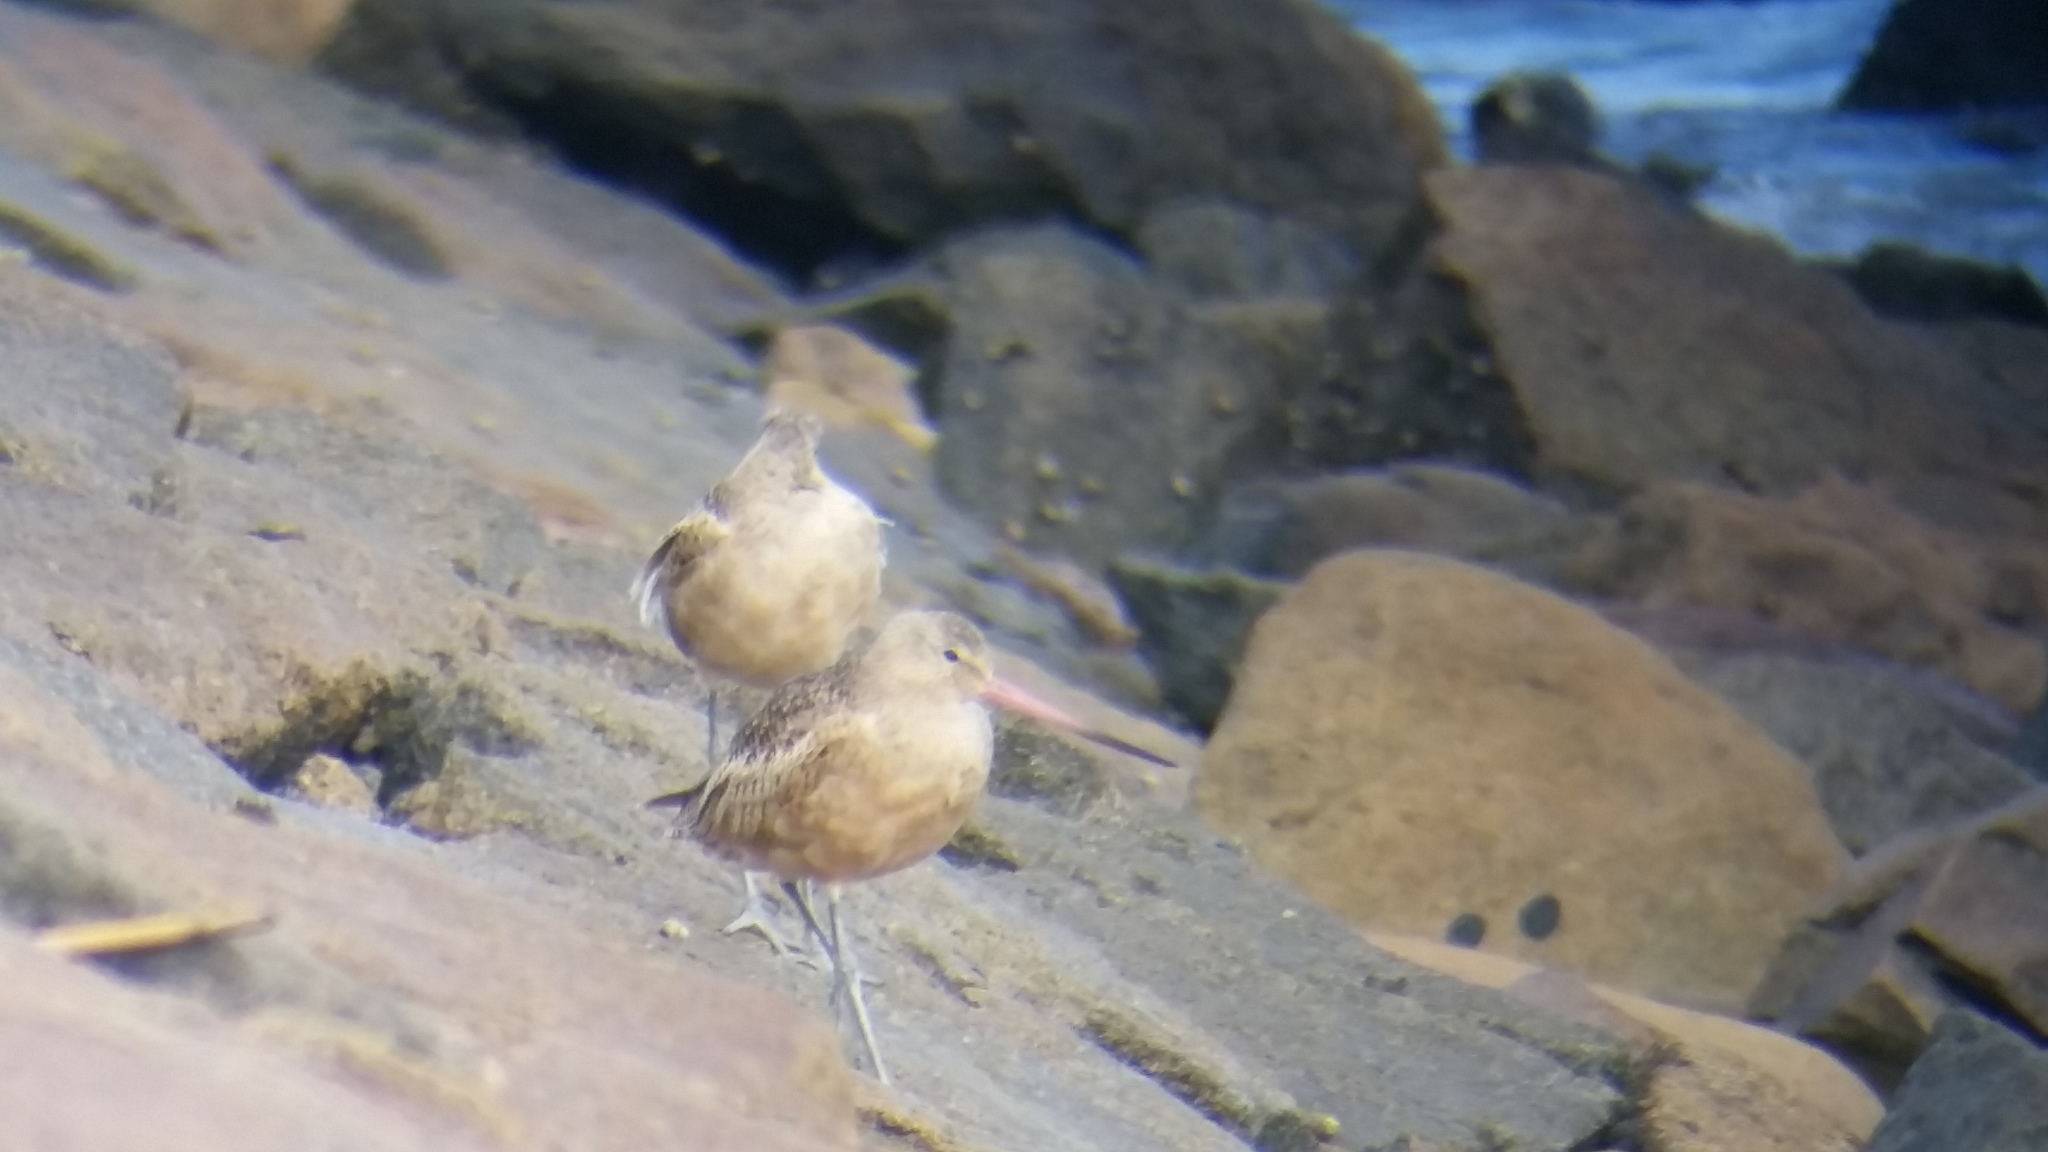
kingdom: Animalia
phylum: Chordata
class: Aves
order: Charadriiformes
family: Scolopacidae
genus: Limosa
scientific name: Limosa fedoa
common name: Marbled godwit
